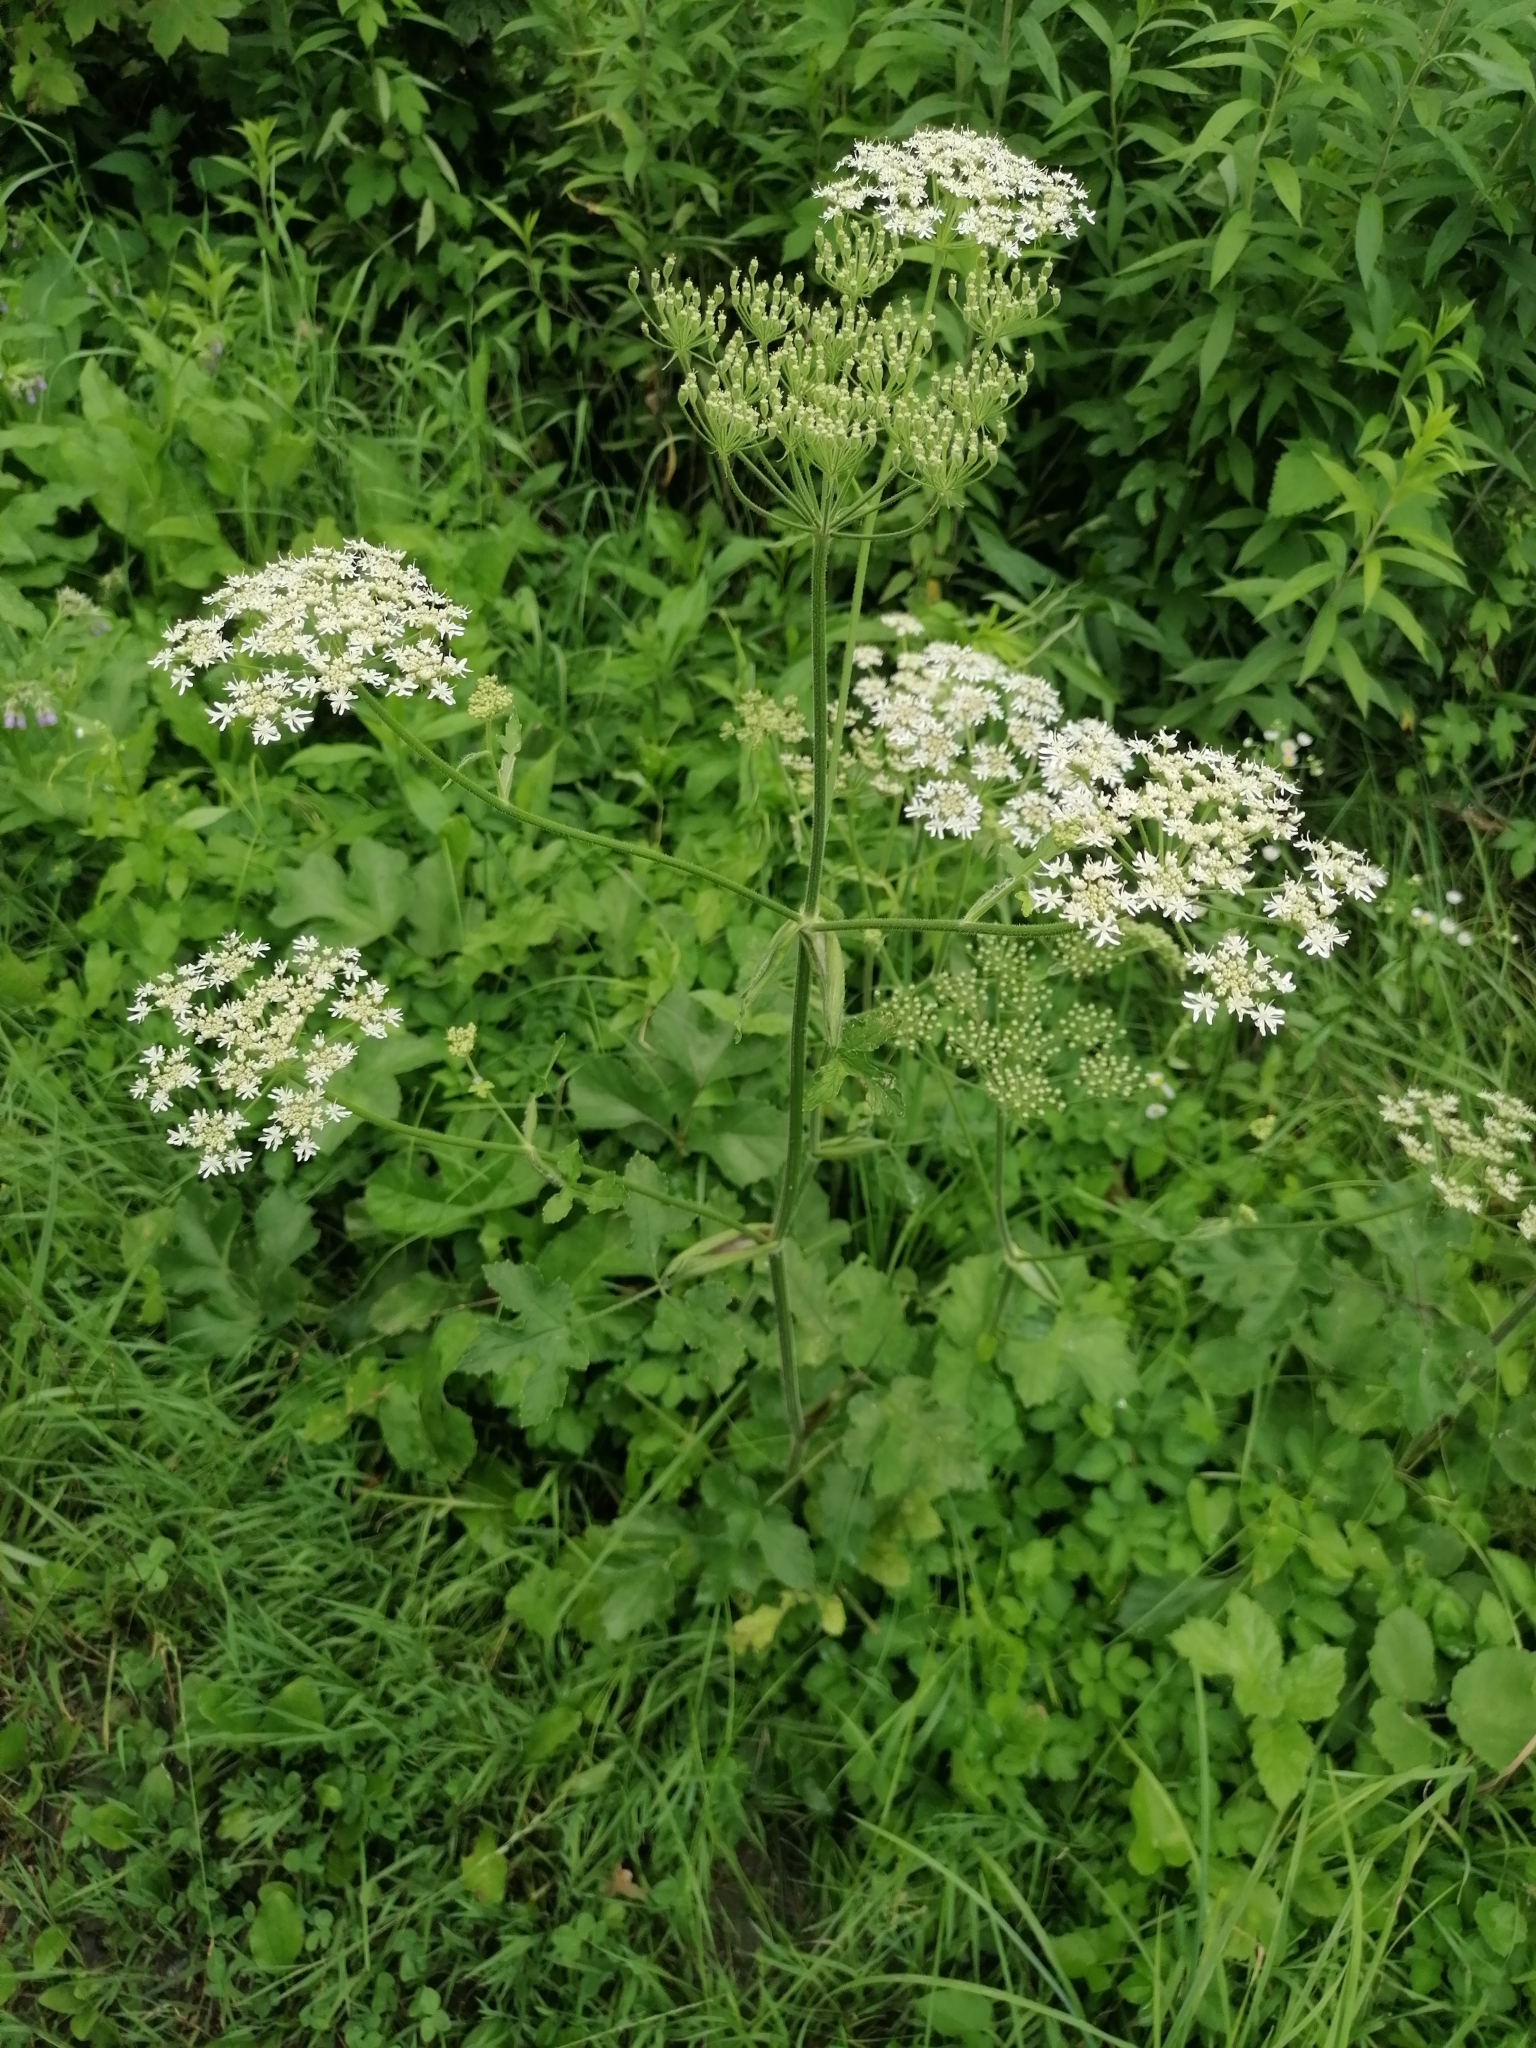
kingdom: Plantae
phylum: Tracheophyta
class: Magnoliopsida
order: Apiales
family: Apiaceae
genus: Heracleum
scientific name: Heracleum sphondylium
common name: Hogweed
